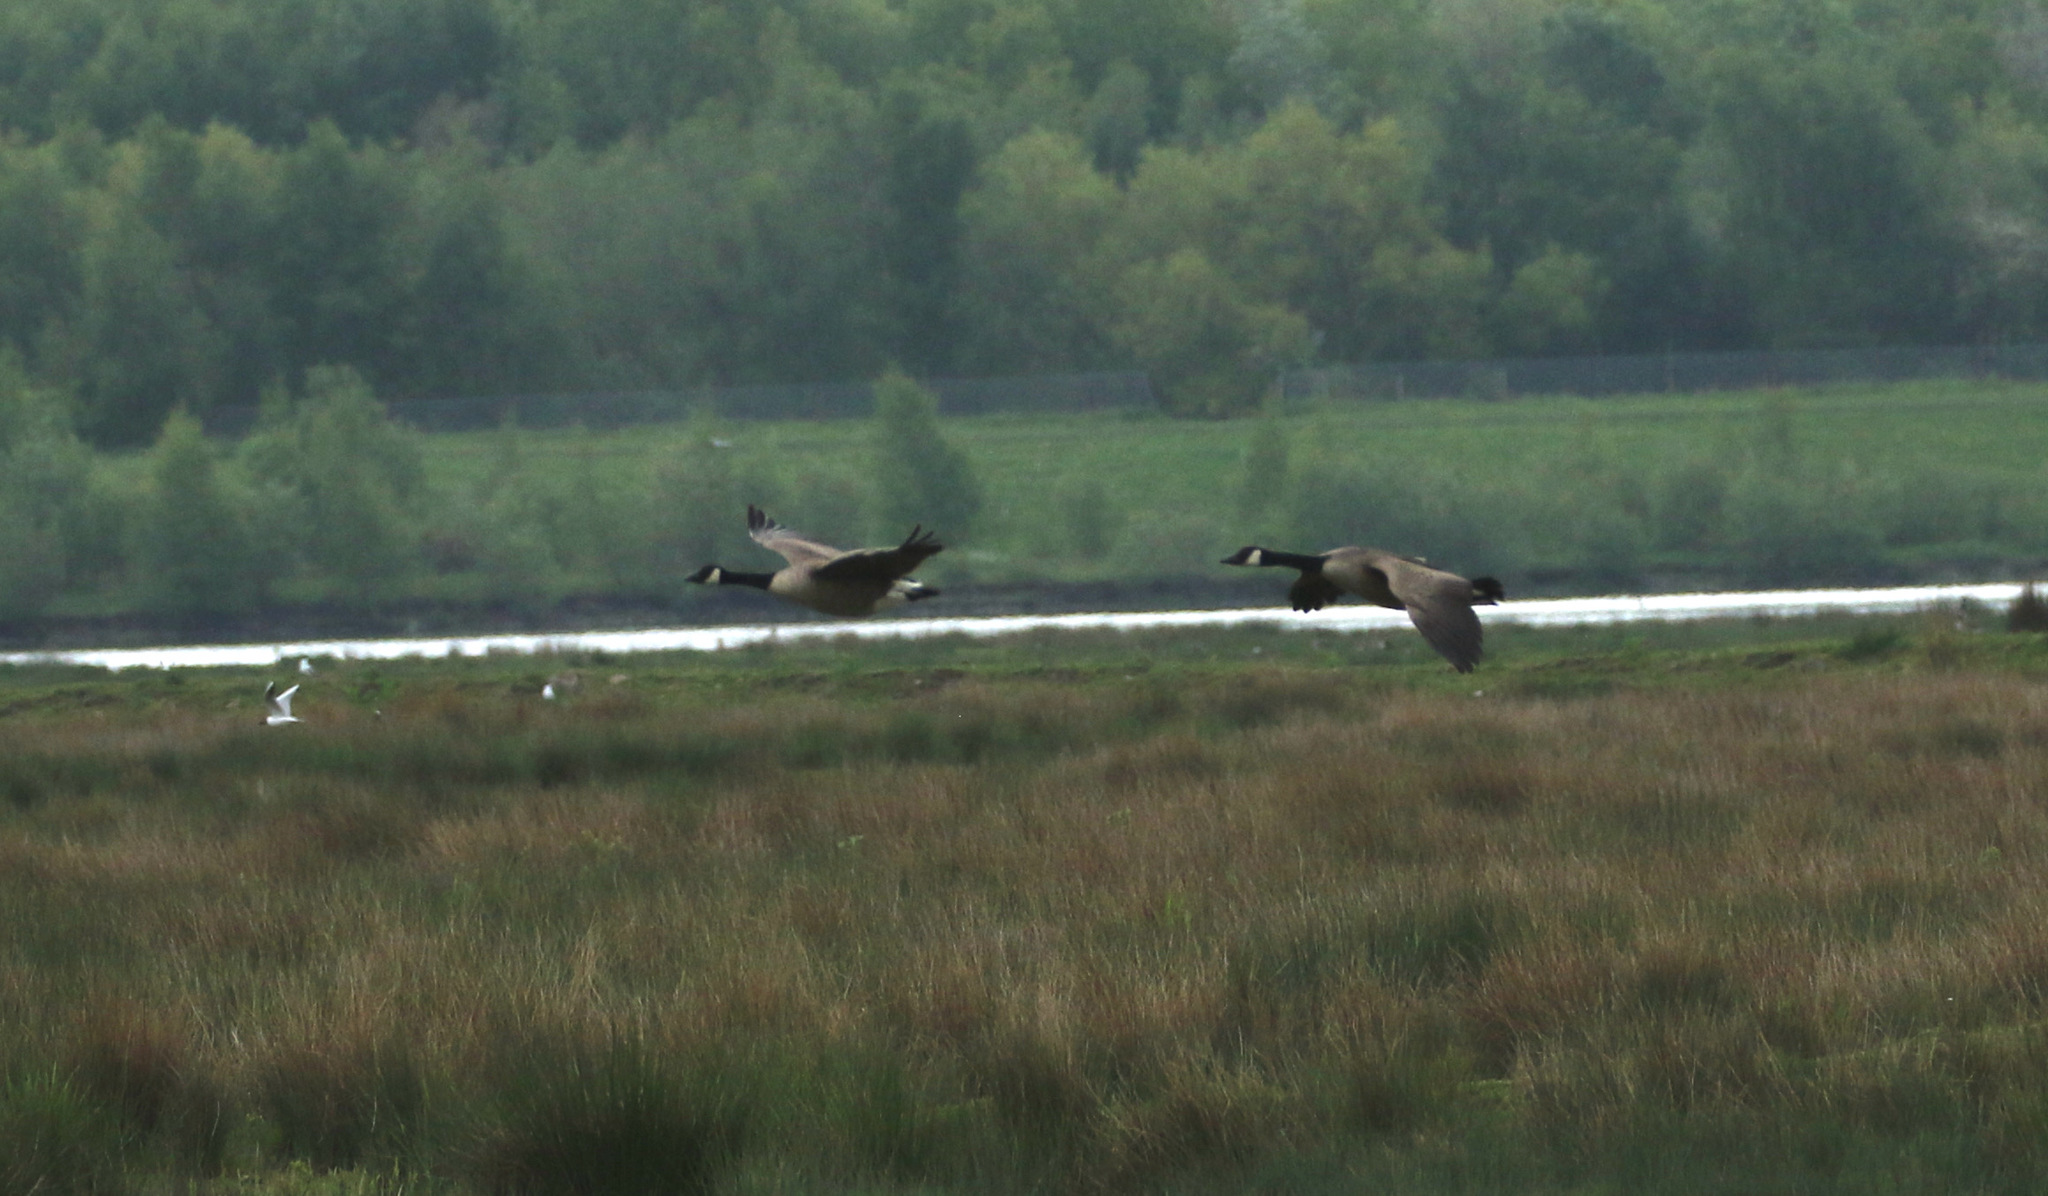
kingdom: Animalia
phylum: Chordata
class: Aves
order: Anseriformes
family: Anatidae
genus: Branta
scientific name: Branta canadensis
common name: Canada goose
